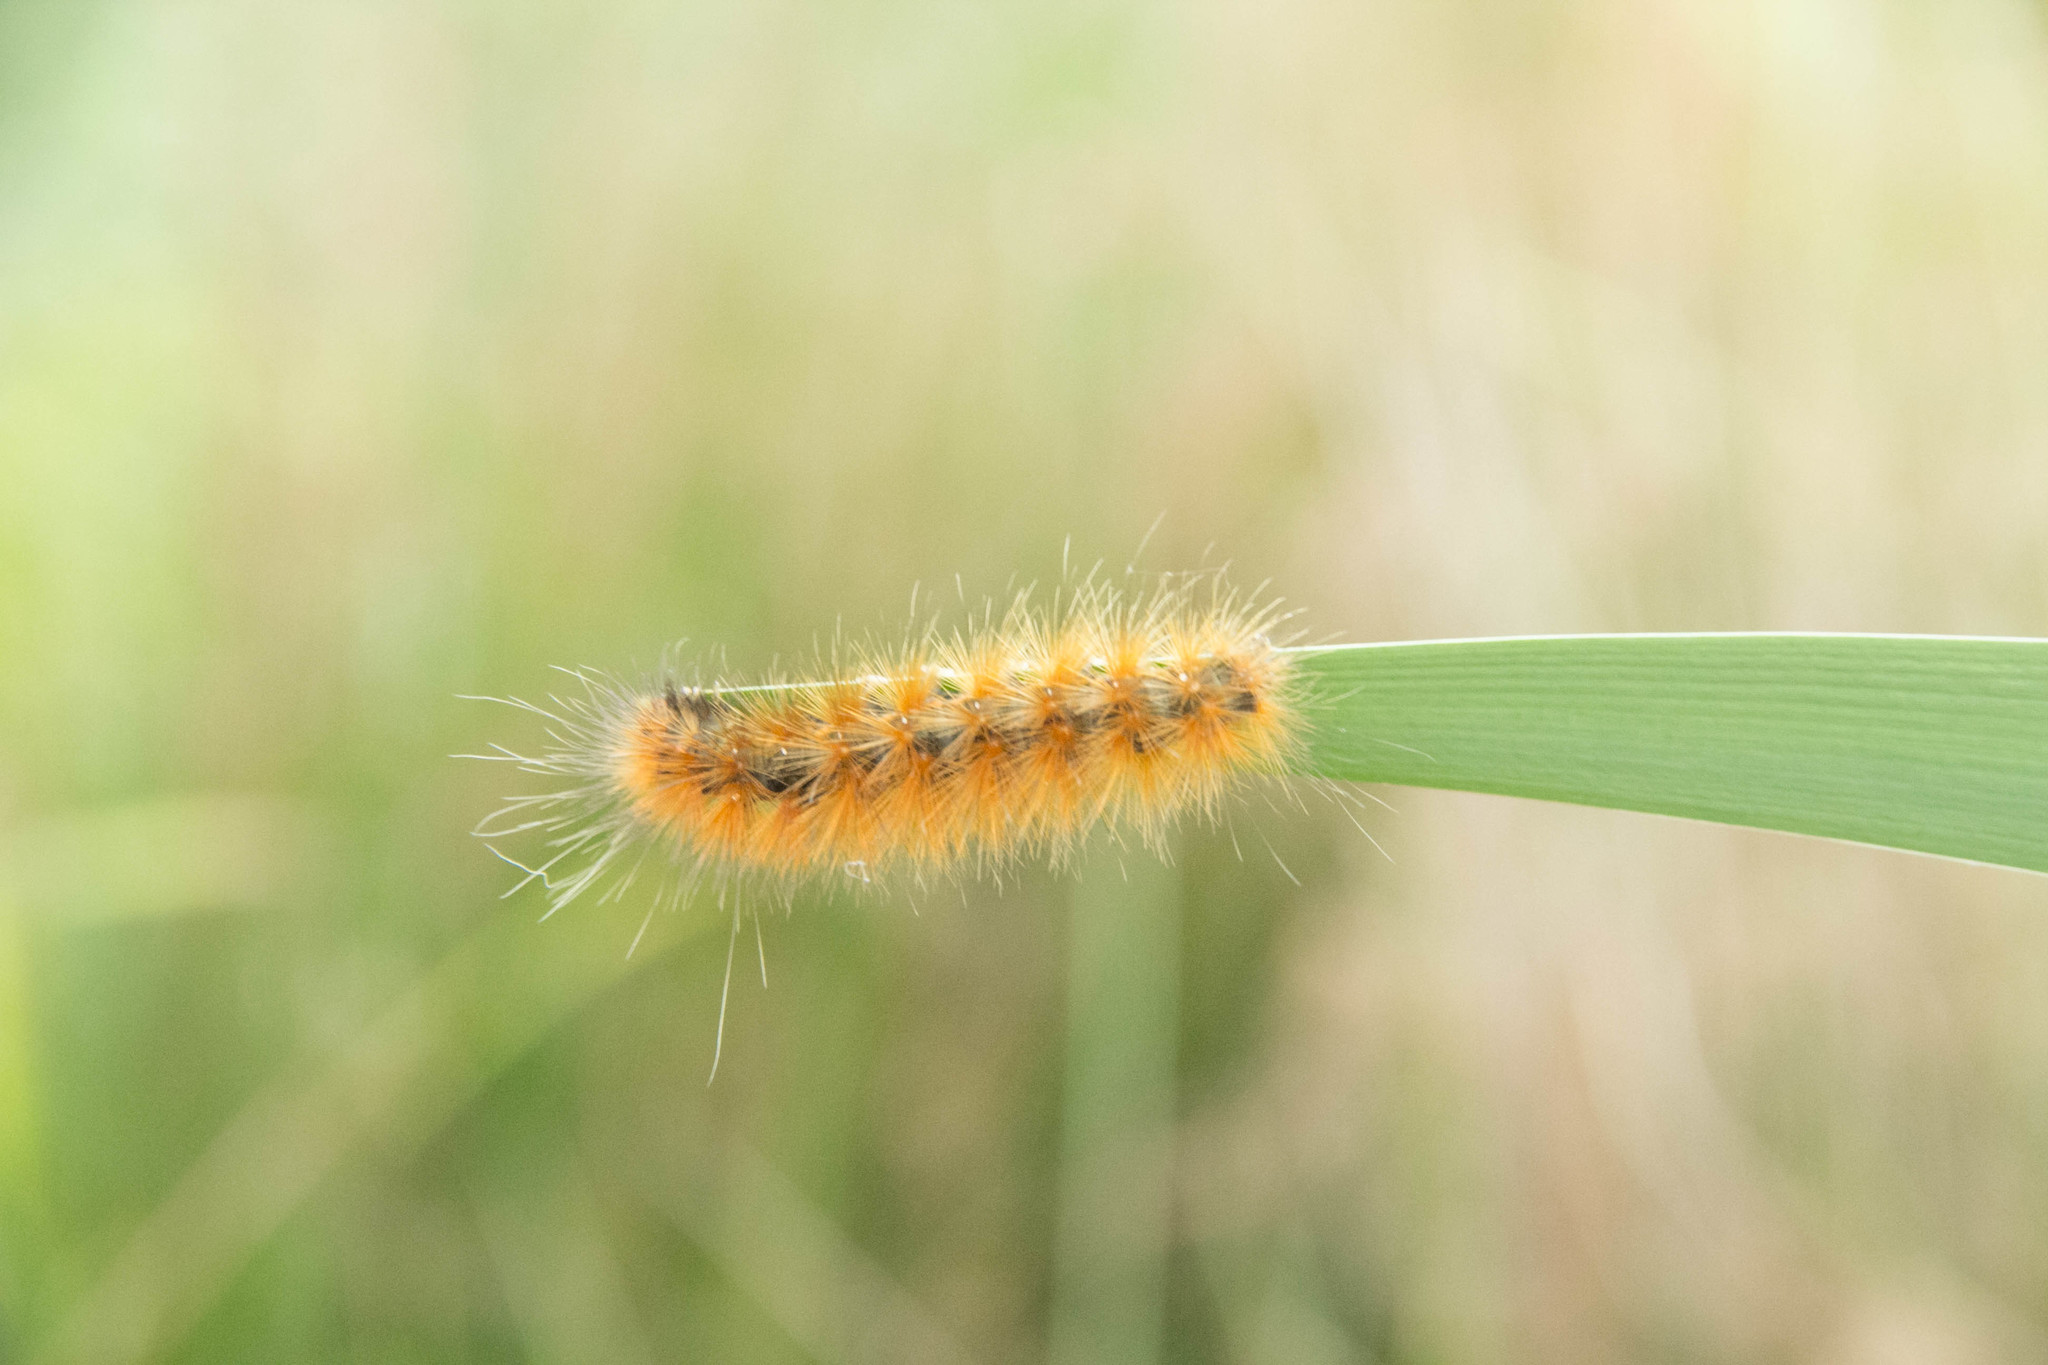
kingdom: Animalia
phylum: Arthropoda
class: Insecta
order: Lepidoptera
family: Erebidae
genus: Spilosoma
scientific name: Spilosoma virginica
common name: Virginia tiger moth
